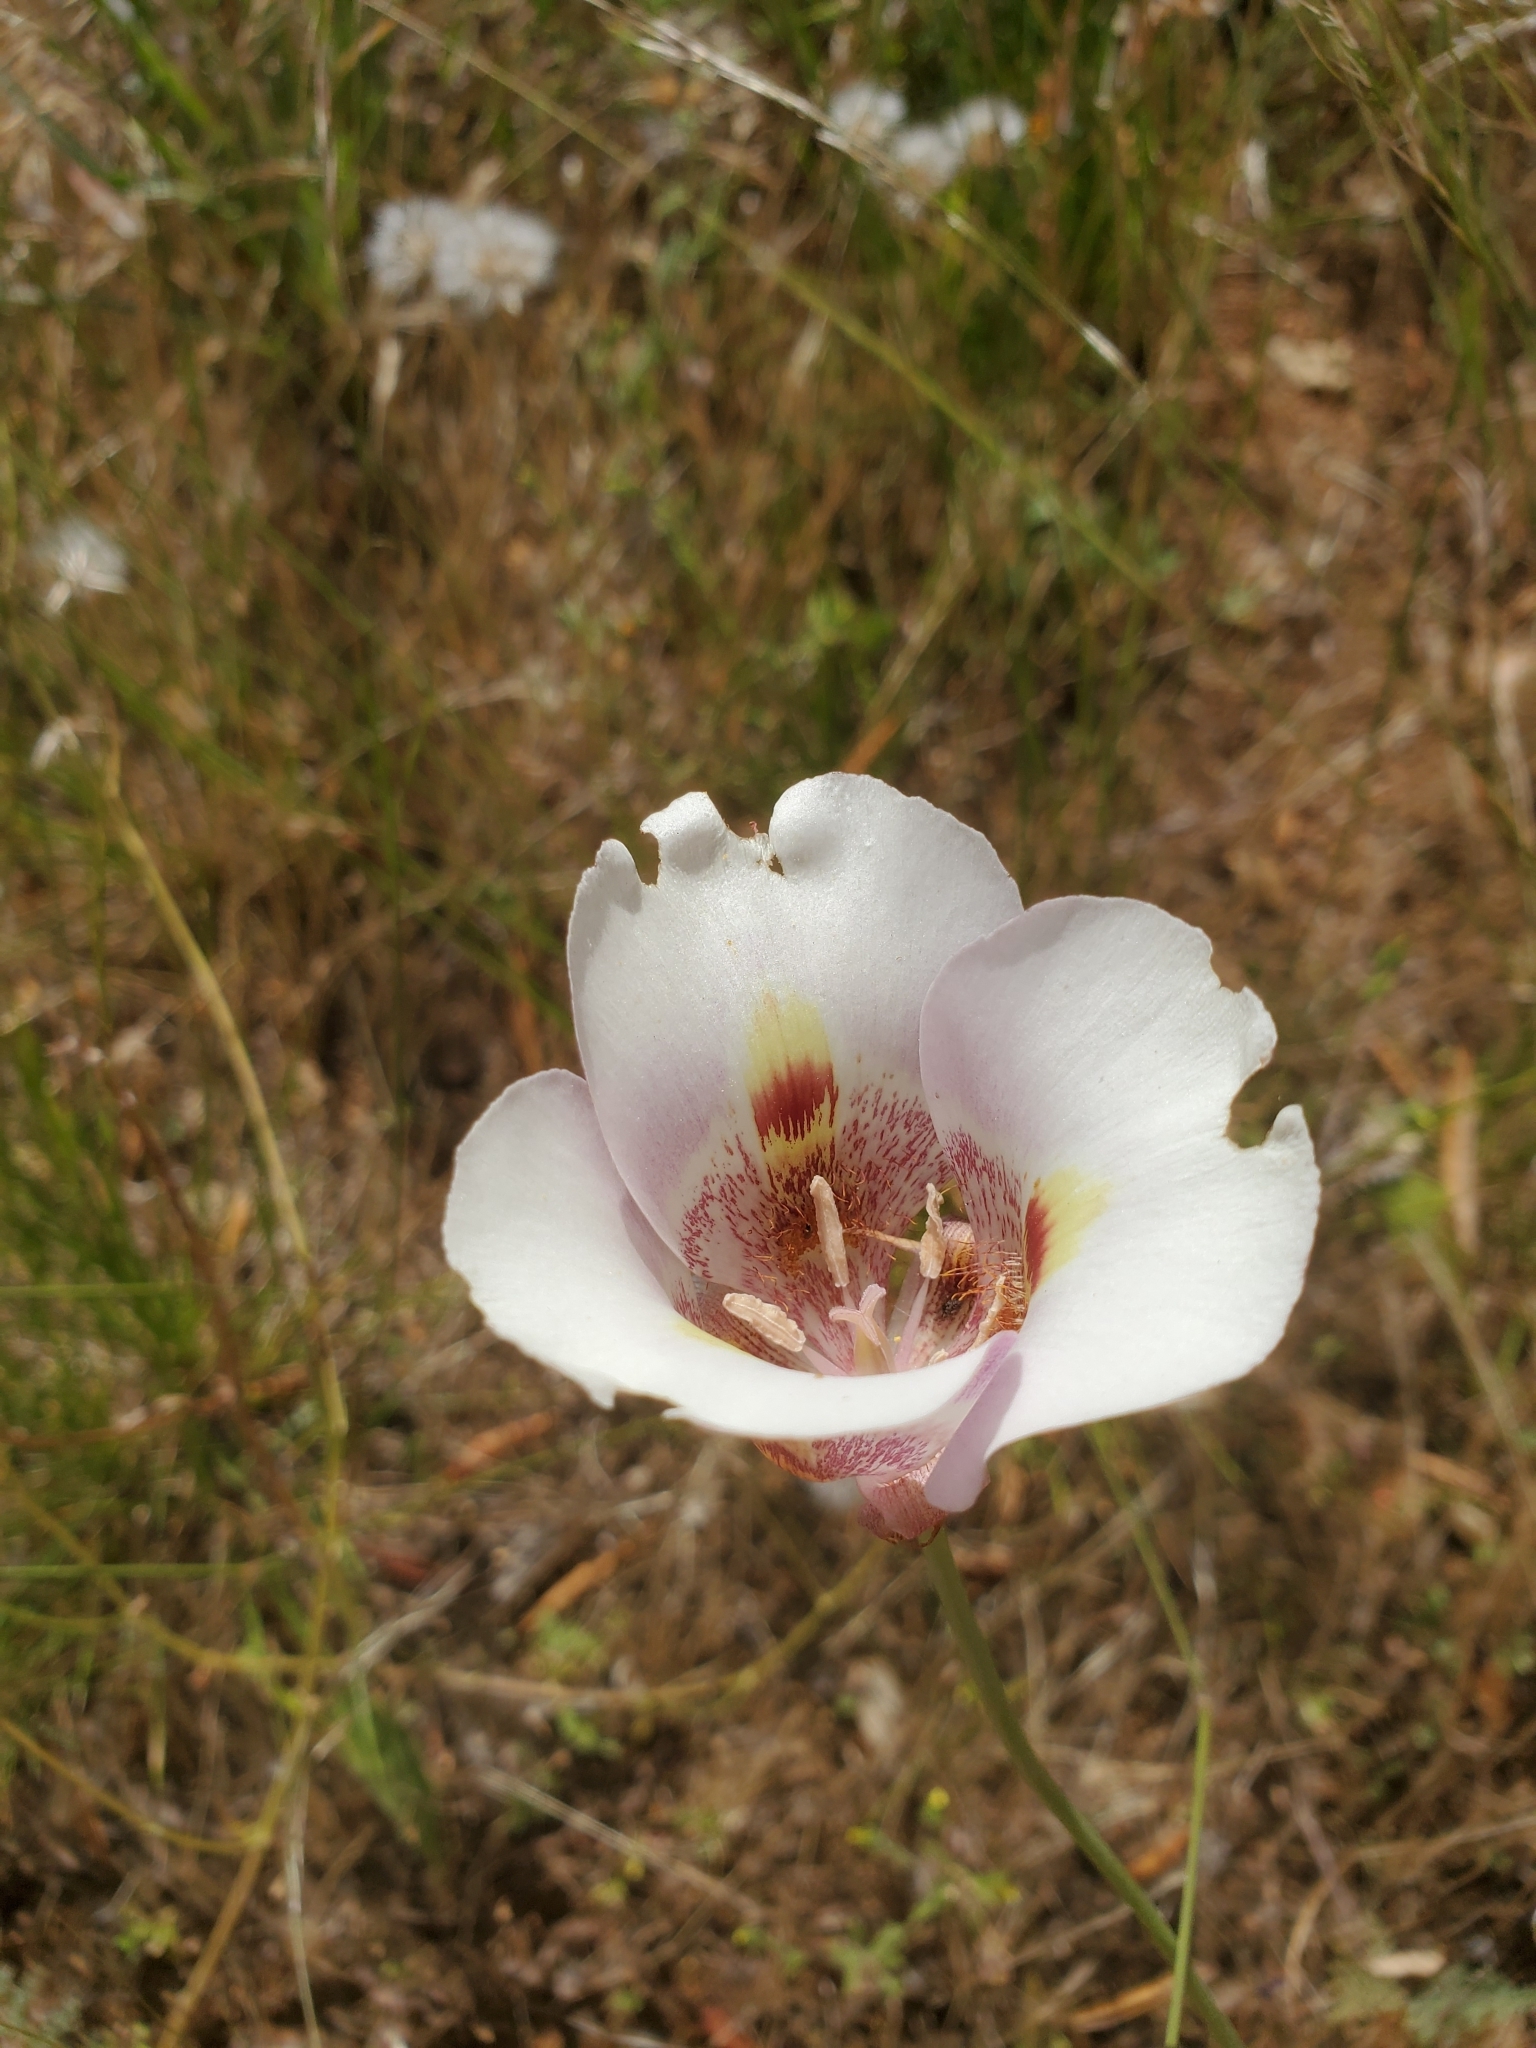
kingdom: Plantae
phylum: Tracheophyta
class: Liliopsida
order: Liliales
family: Liliaceae
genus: Calochortus
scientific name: Calochortus argillosus
